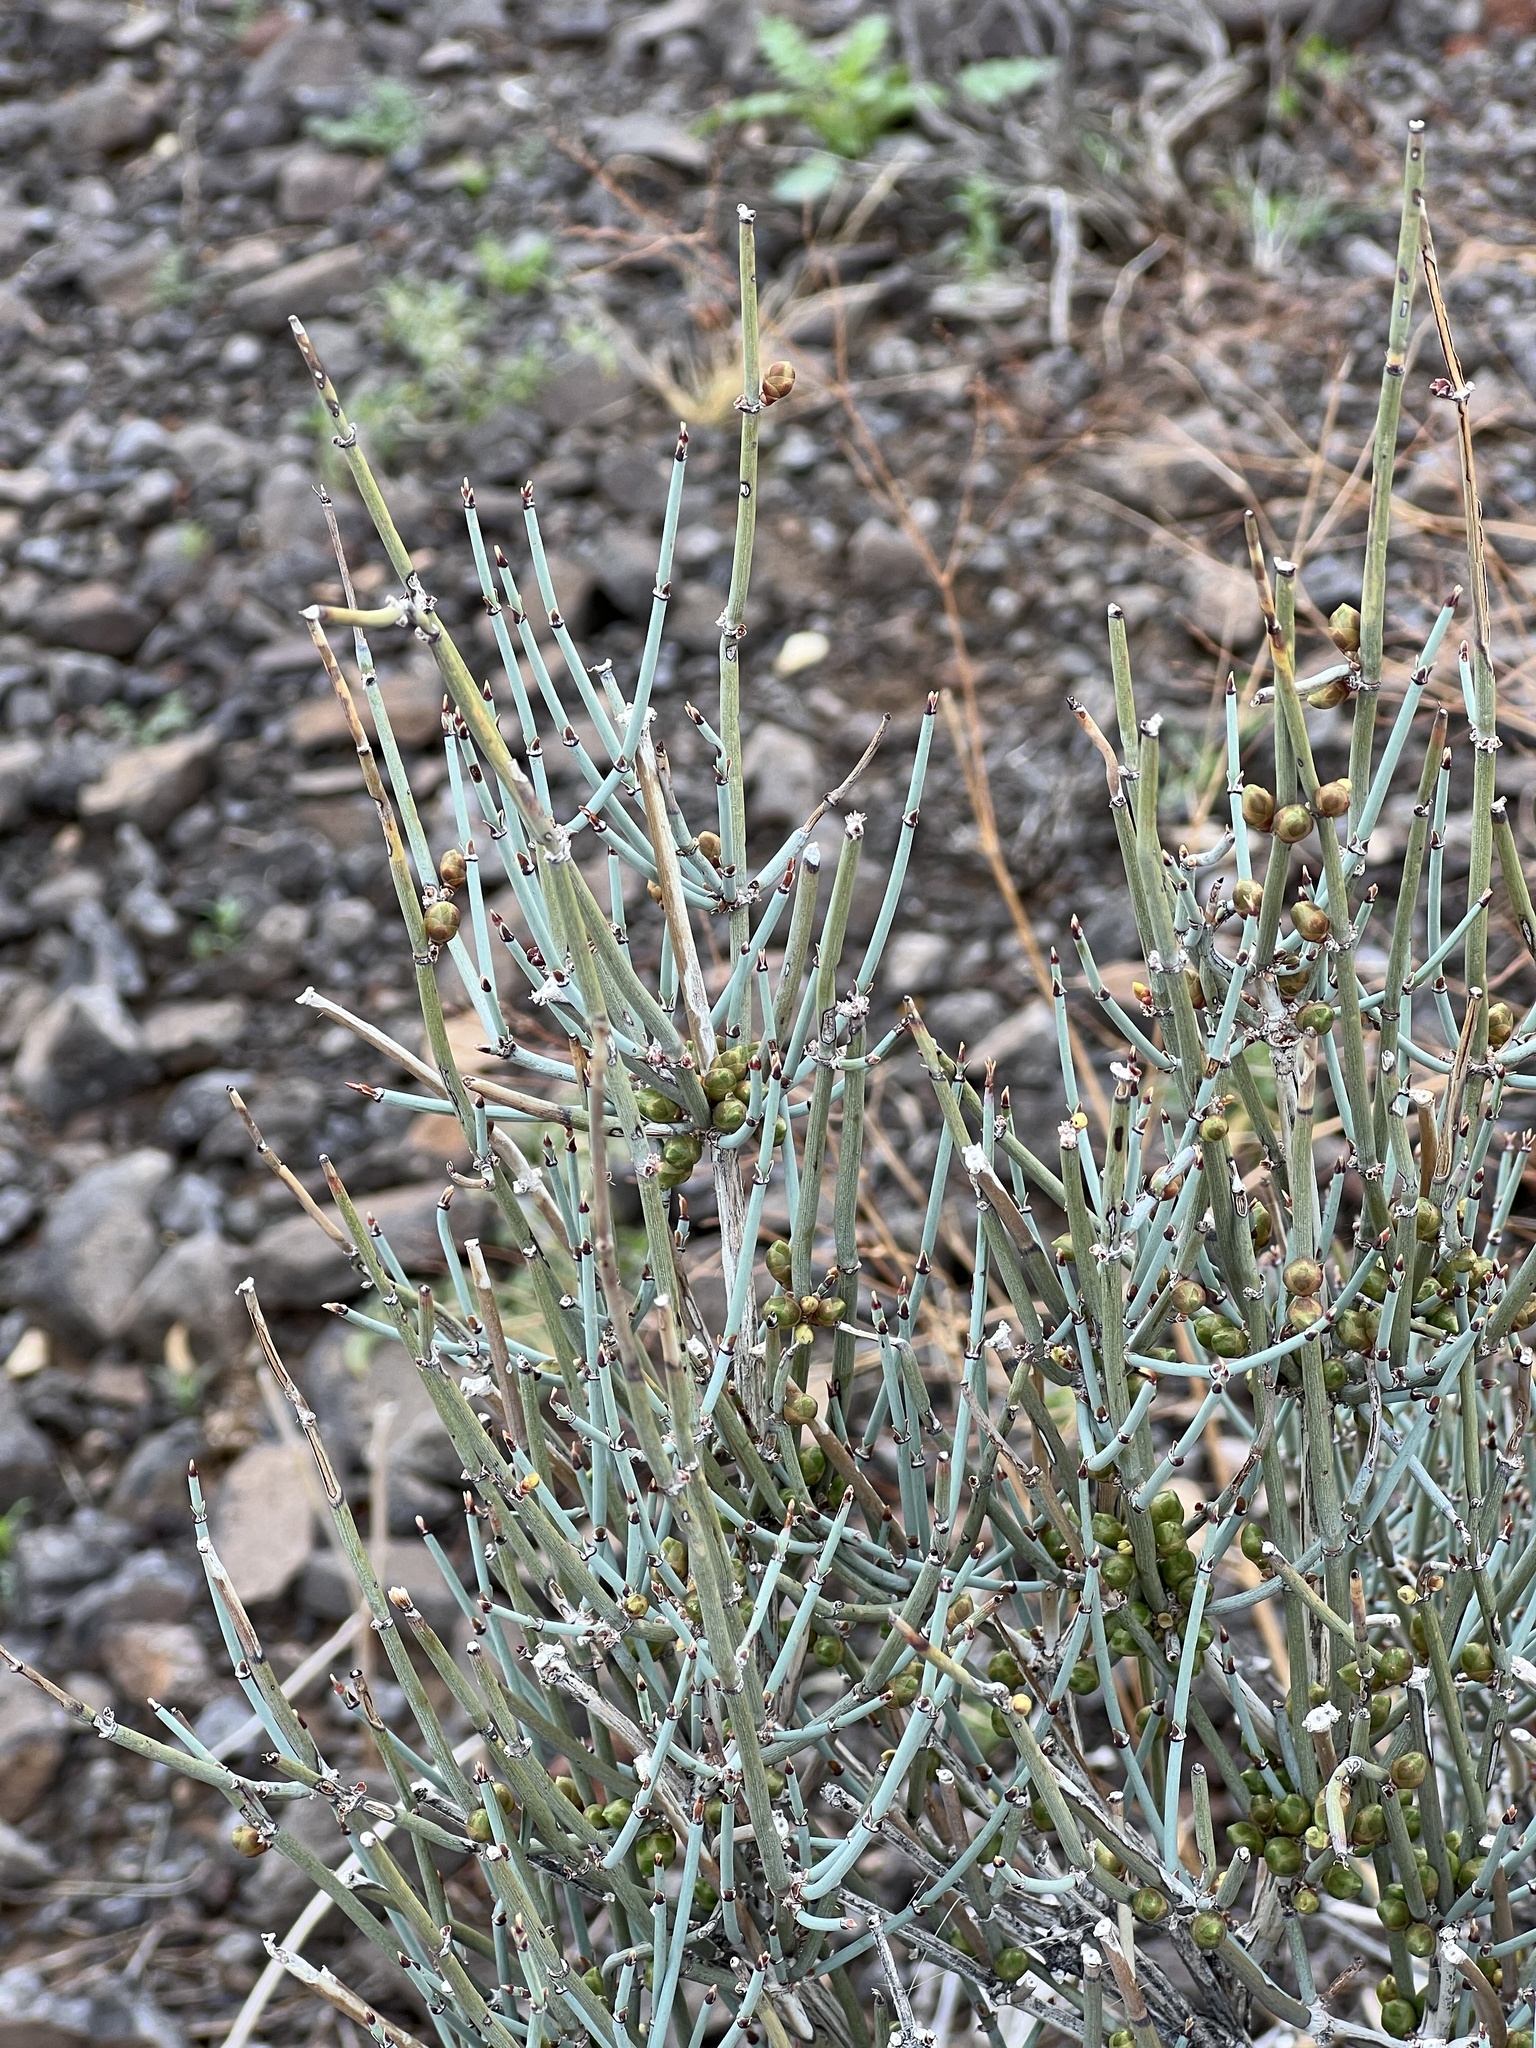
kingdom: Plantae
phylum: Tracheophyta
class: Gnetopsida
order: Ephedrales
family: Ephedraceae
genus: Ephedra
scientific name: Ephedra nevadensis
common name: Gray ephedra
